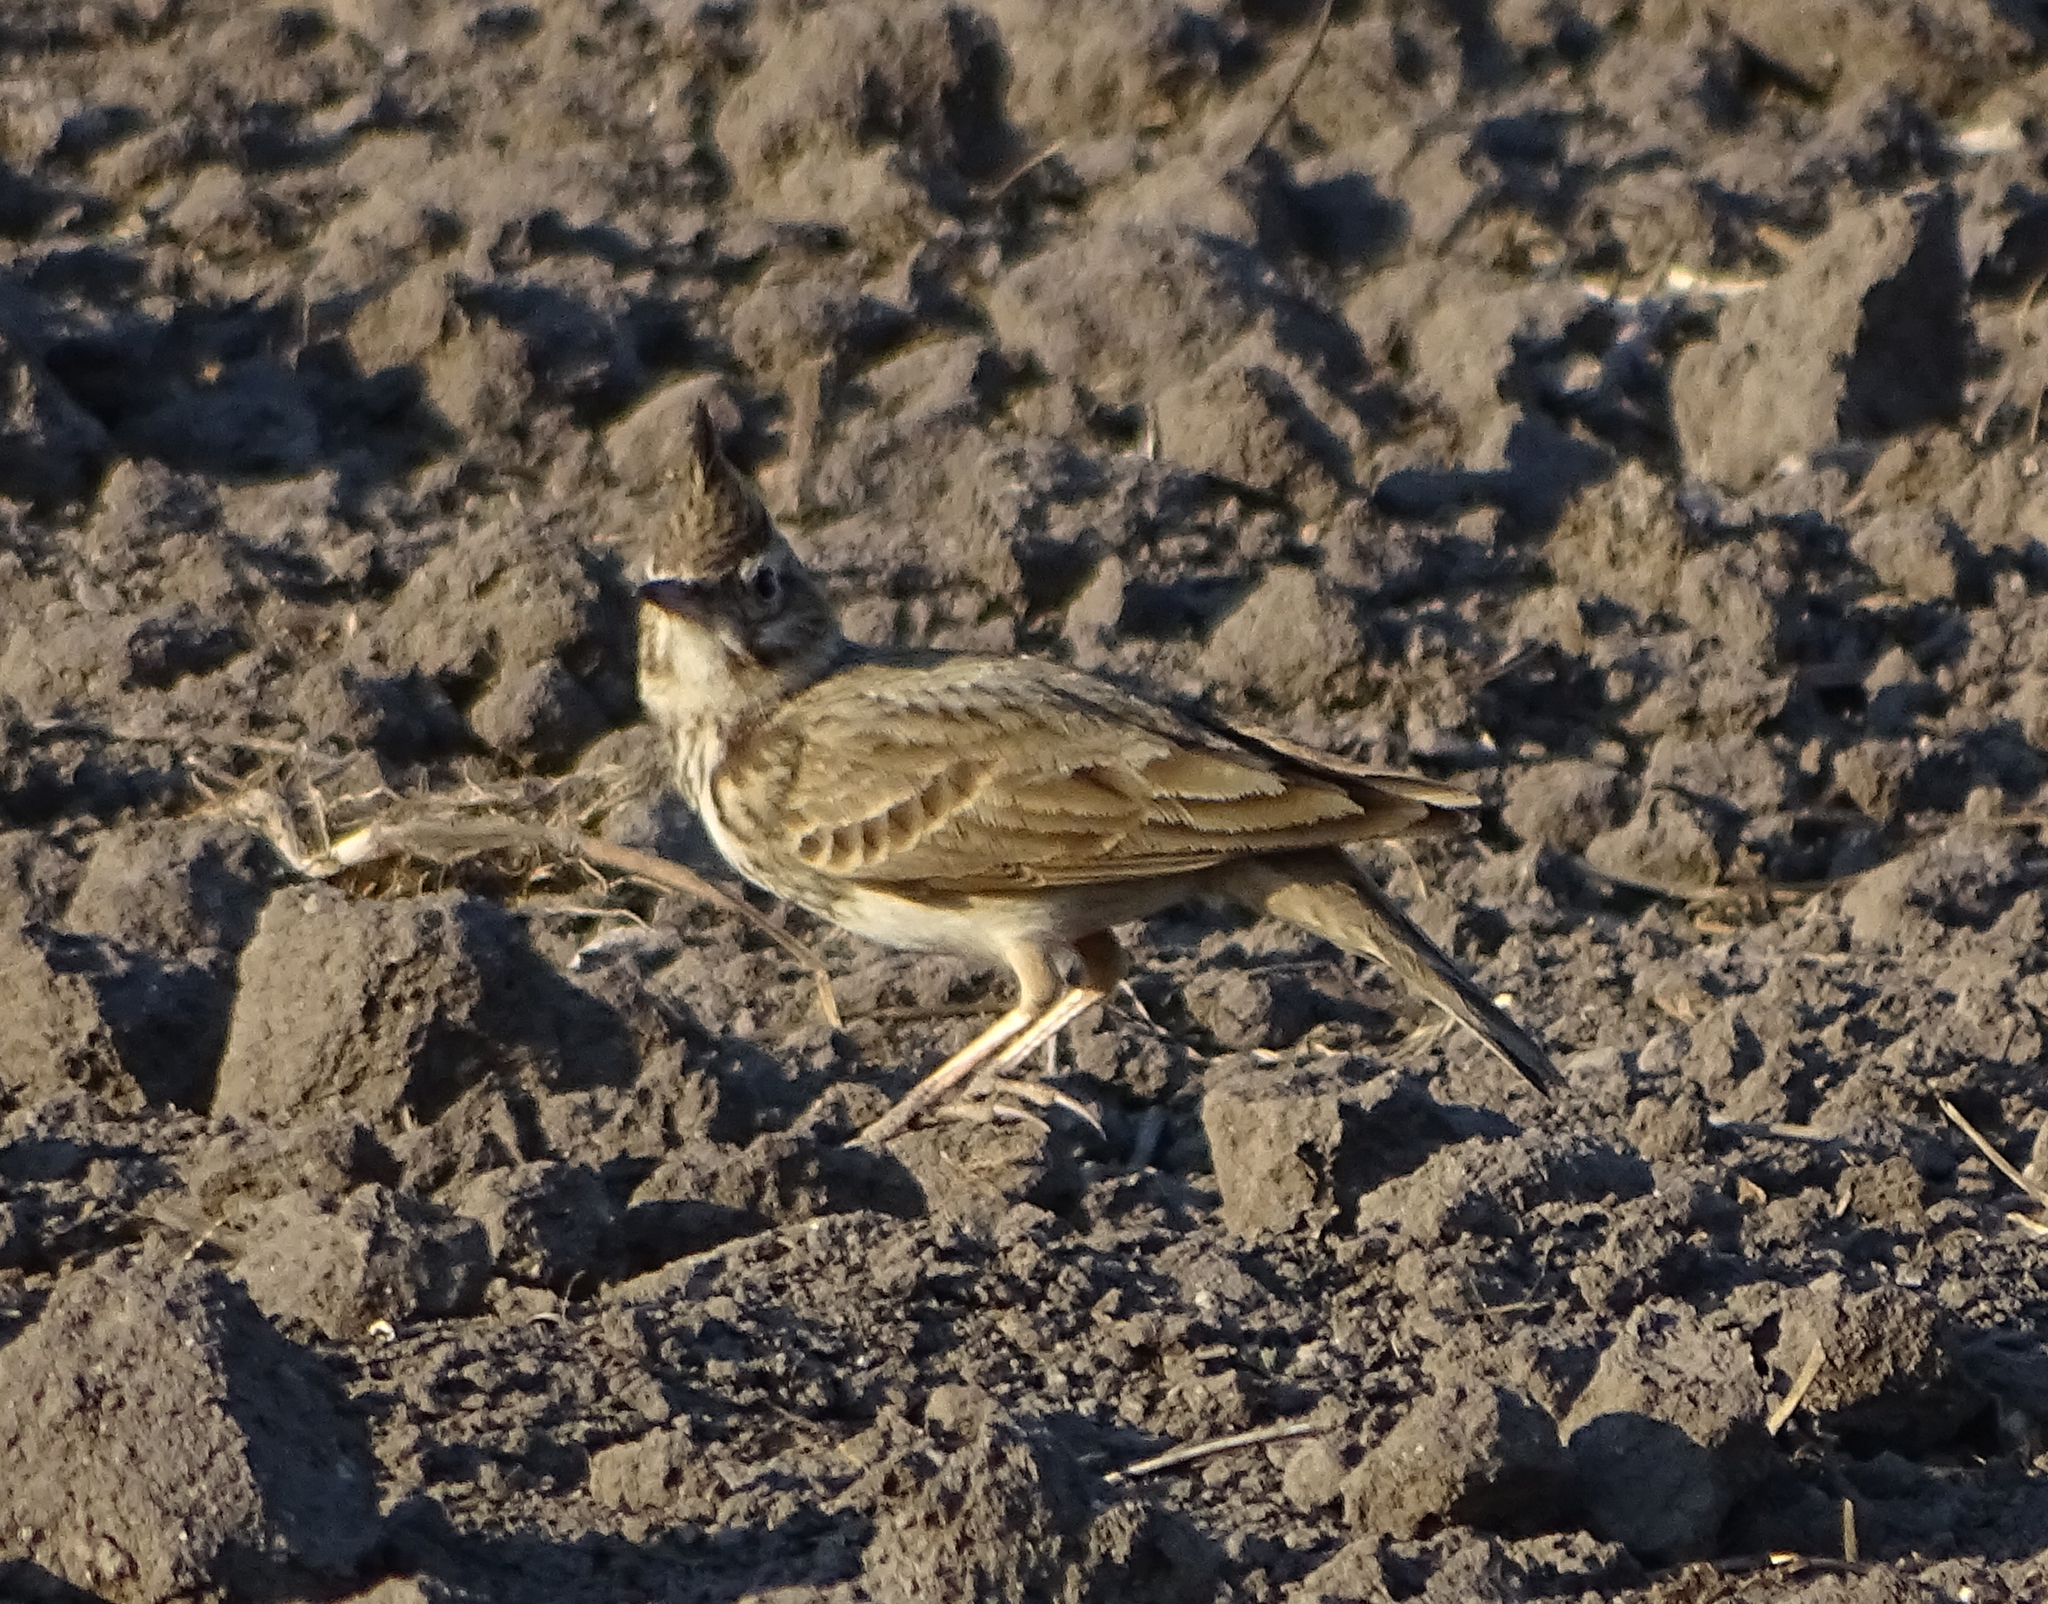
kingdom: Animalia
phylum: Chordata
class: Aves
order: Passeriformes
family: Alaudidae
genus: Galerida
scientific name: Galerida cristata
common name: Crested lark
